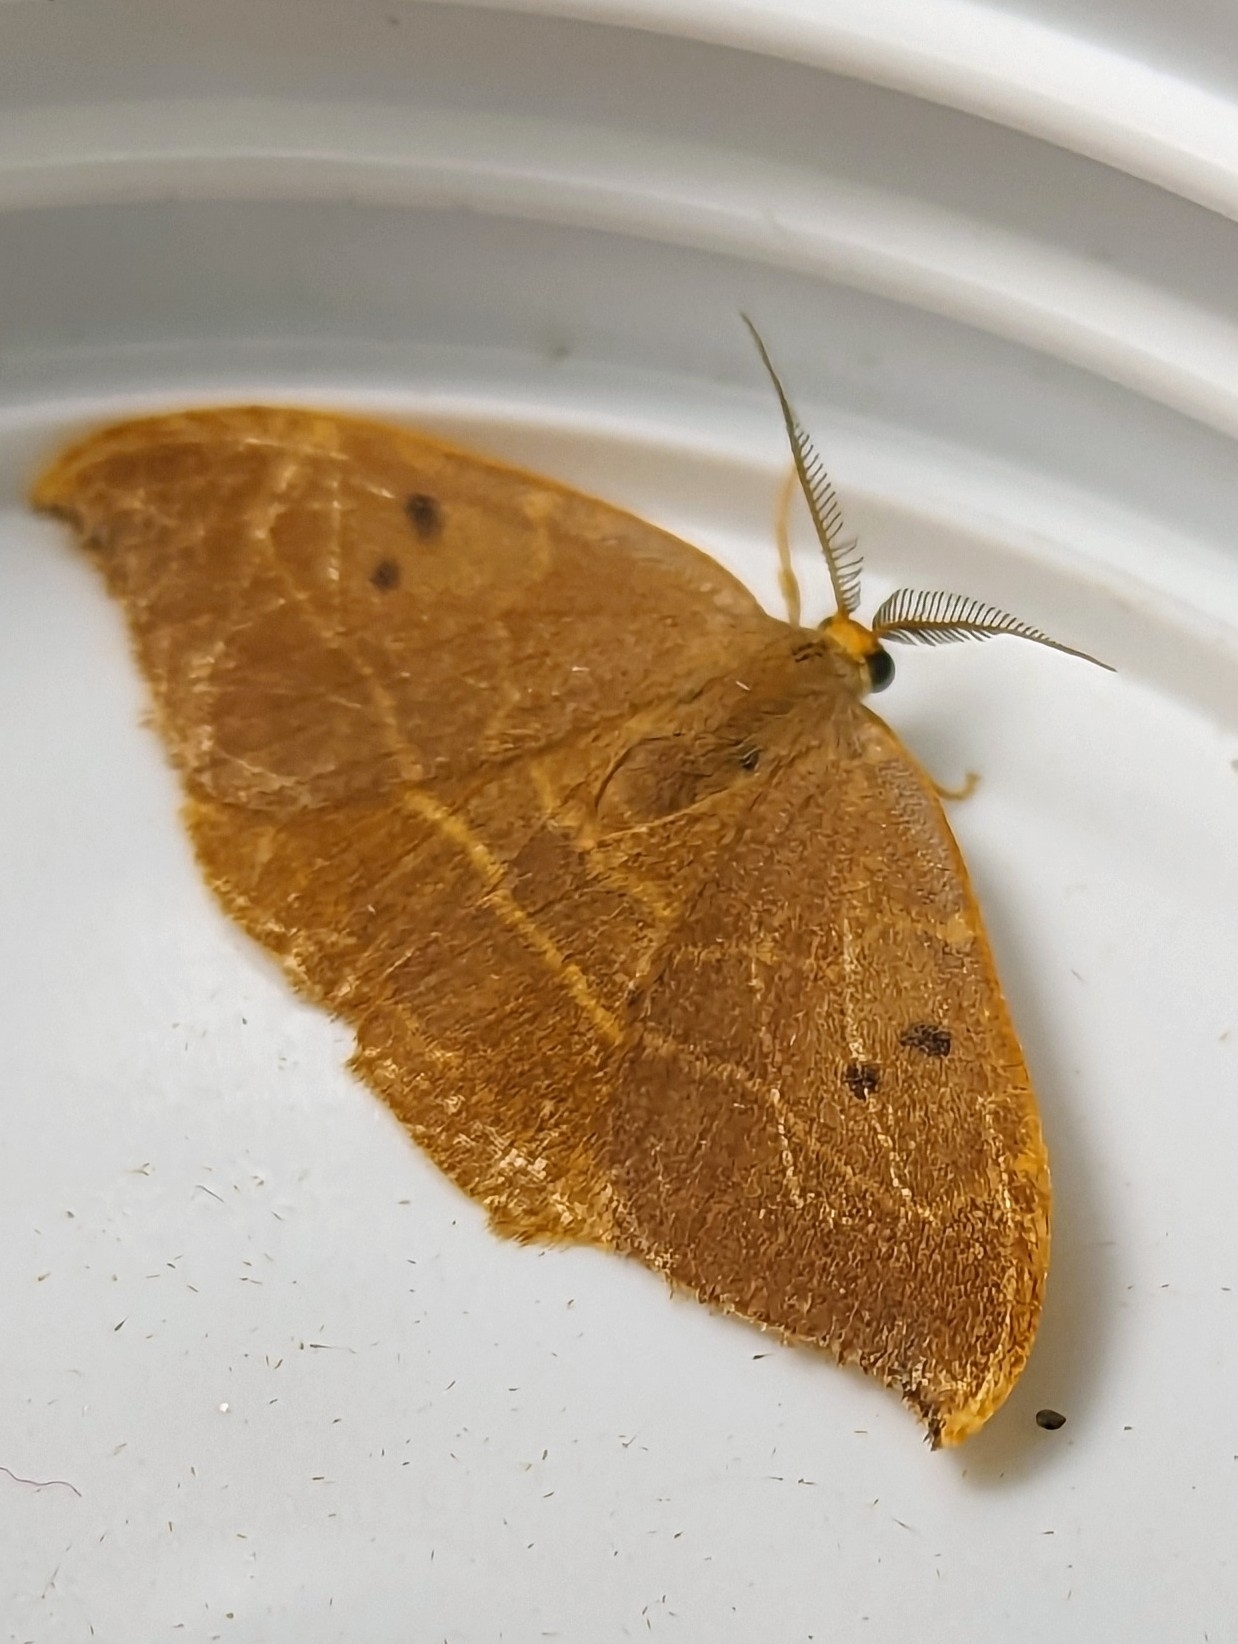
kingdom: Animalia
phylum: Arthropoda
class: Insecta
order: Lepidoptera
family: Drepanidae
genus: Watsonalla
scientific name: Watsonalla binaria
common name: Oak hook-tip
